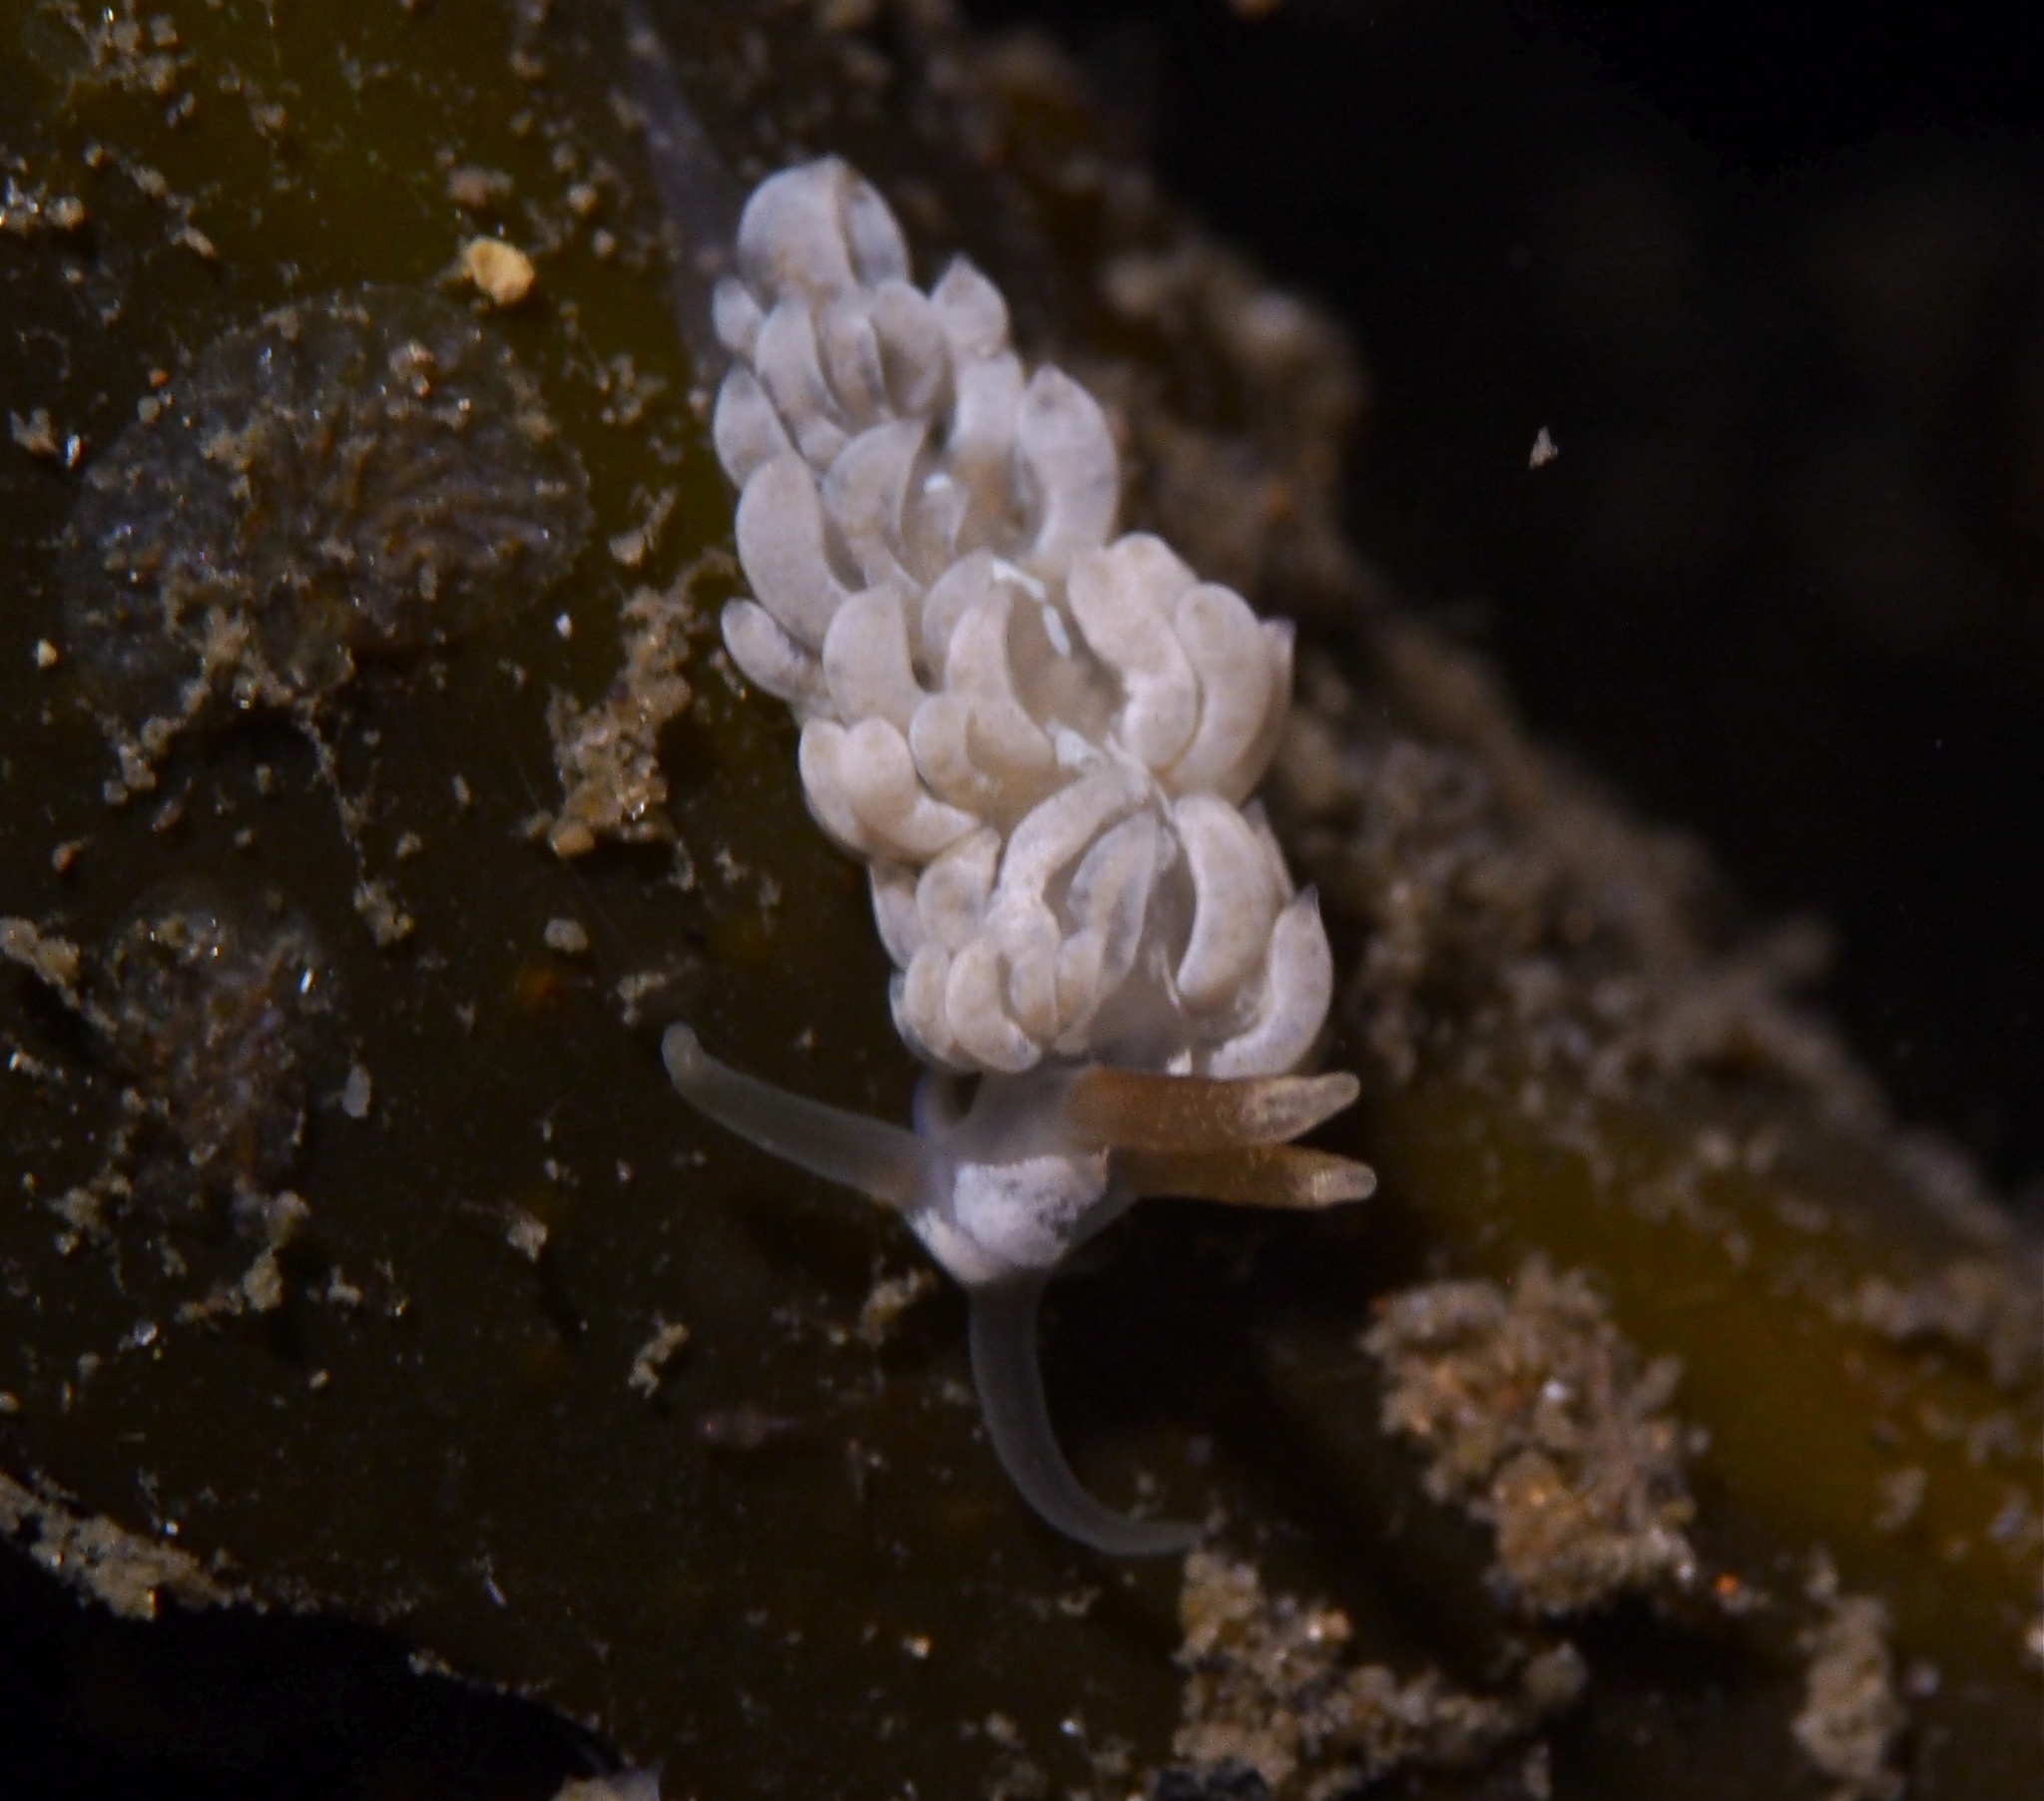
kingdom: Animalia
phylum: Mollusca
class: Gastropoda
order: Nudibranchia
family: Facelinidae
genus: Favorinus
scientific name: Favorinus branchialis
